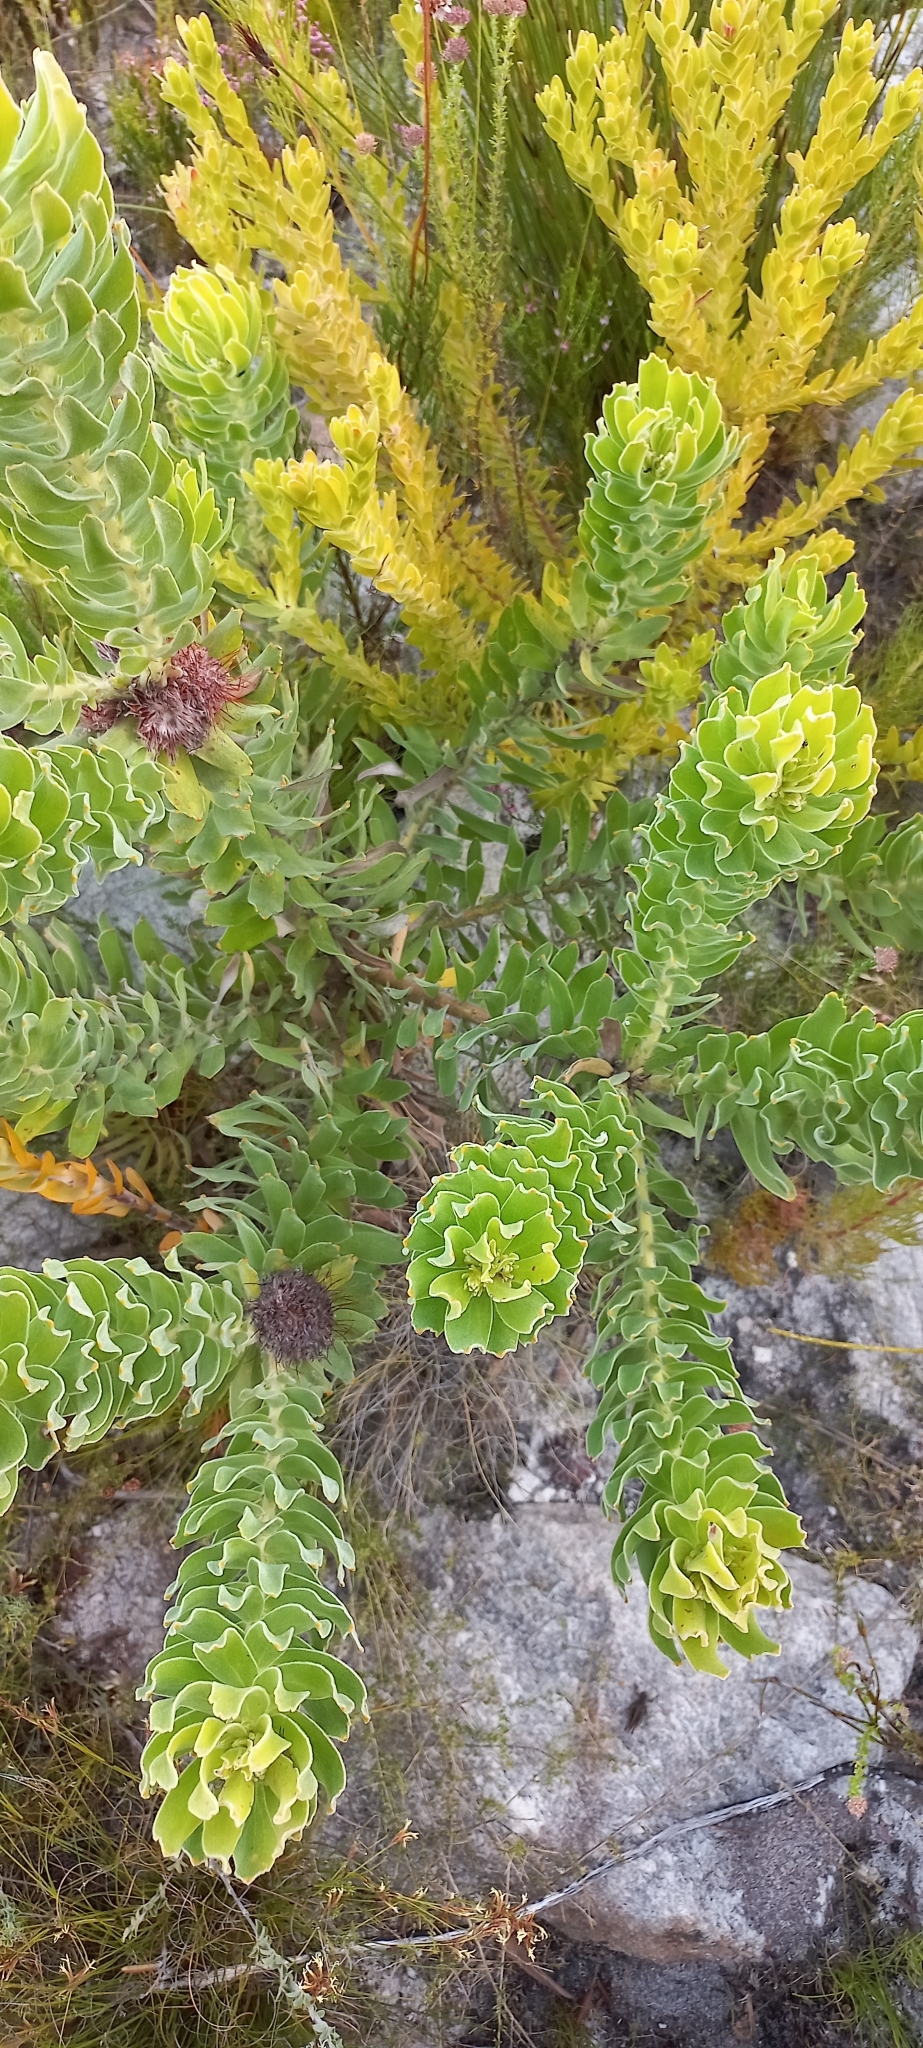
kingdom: Plantae
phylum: Tracheophyta
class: Magnoliopsida
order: Proteales
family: Proteaceae
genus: Leucospermum
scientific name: Leucospermum oleifolium
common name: Matches
